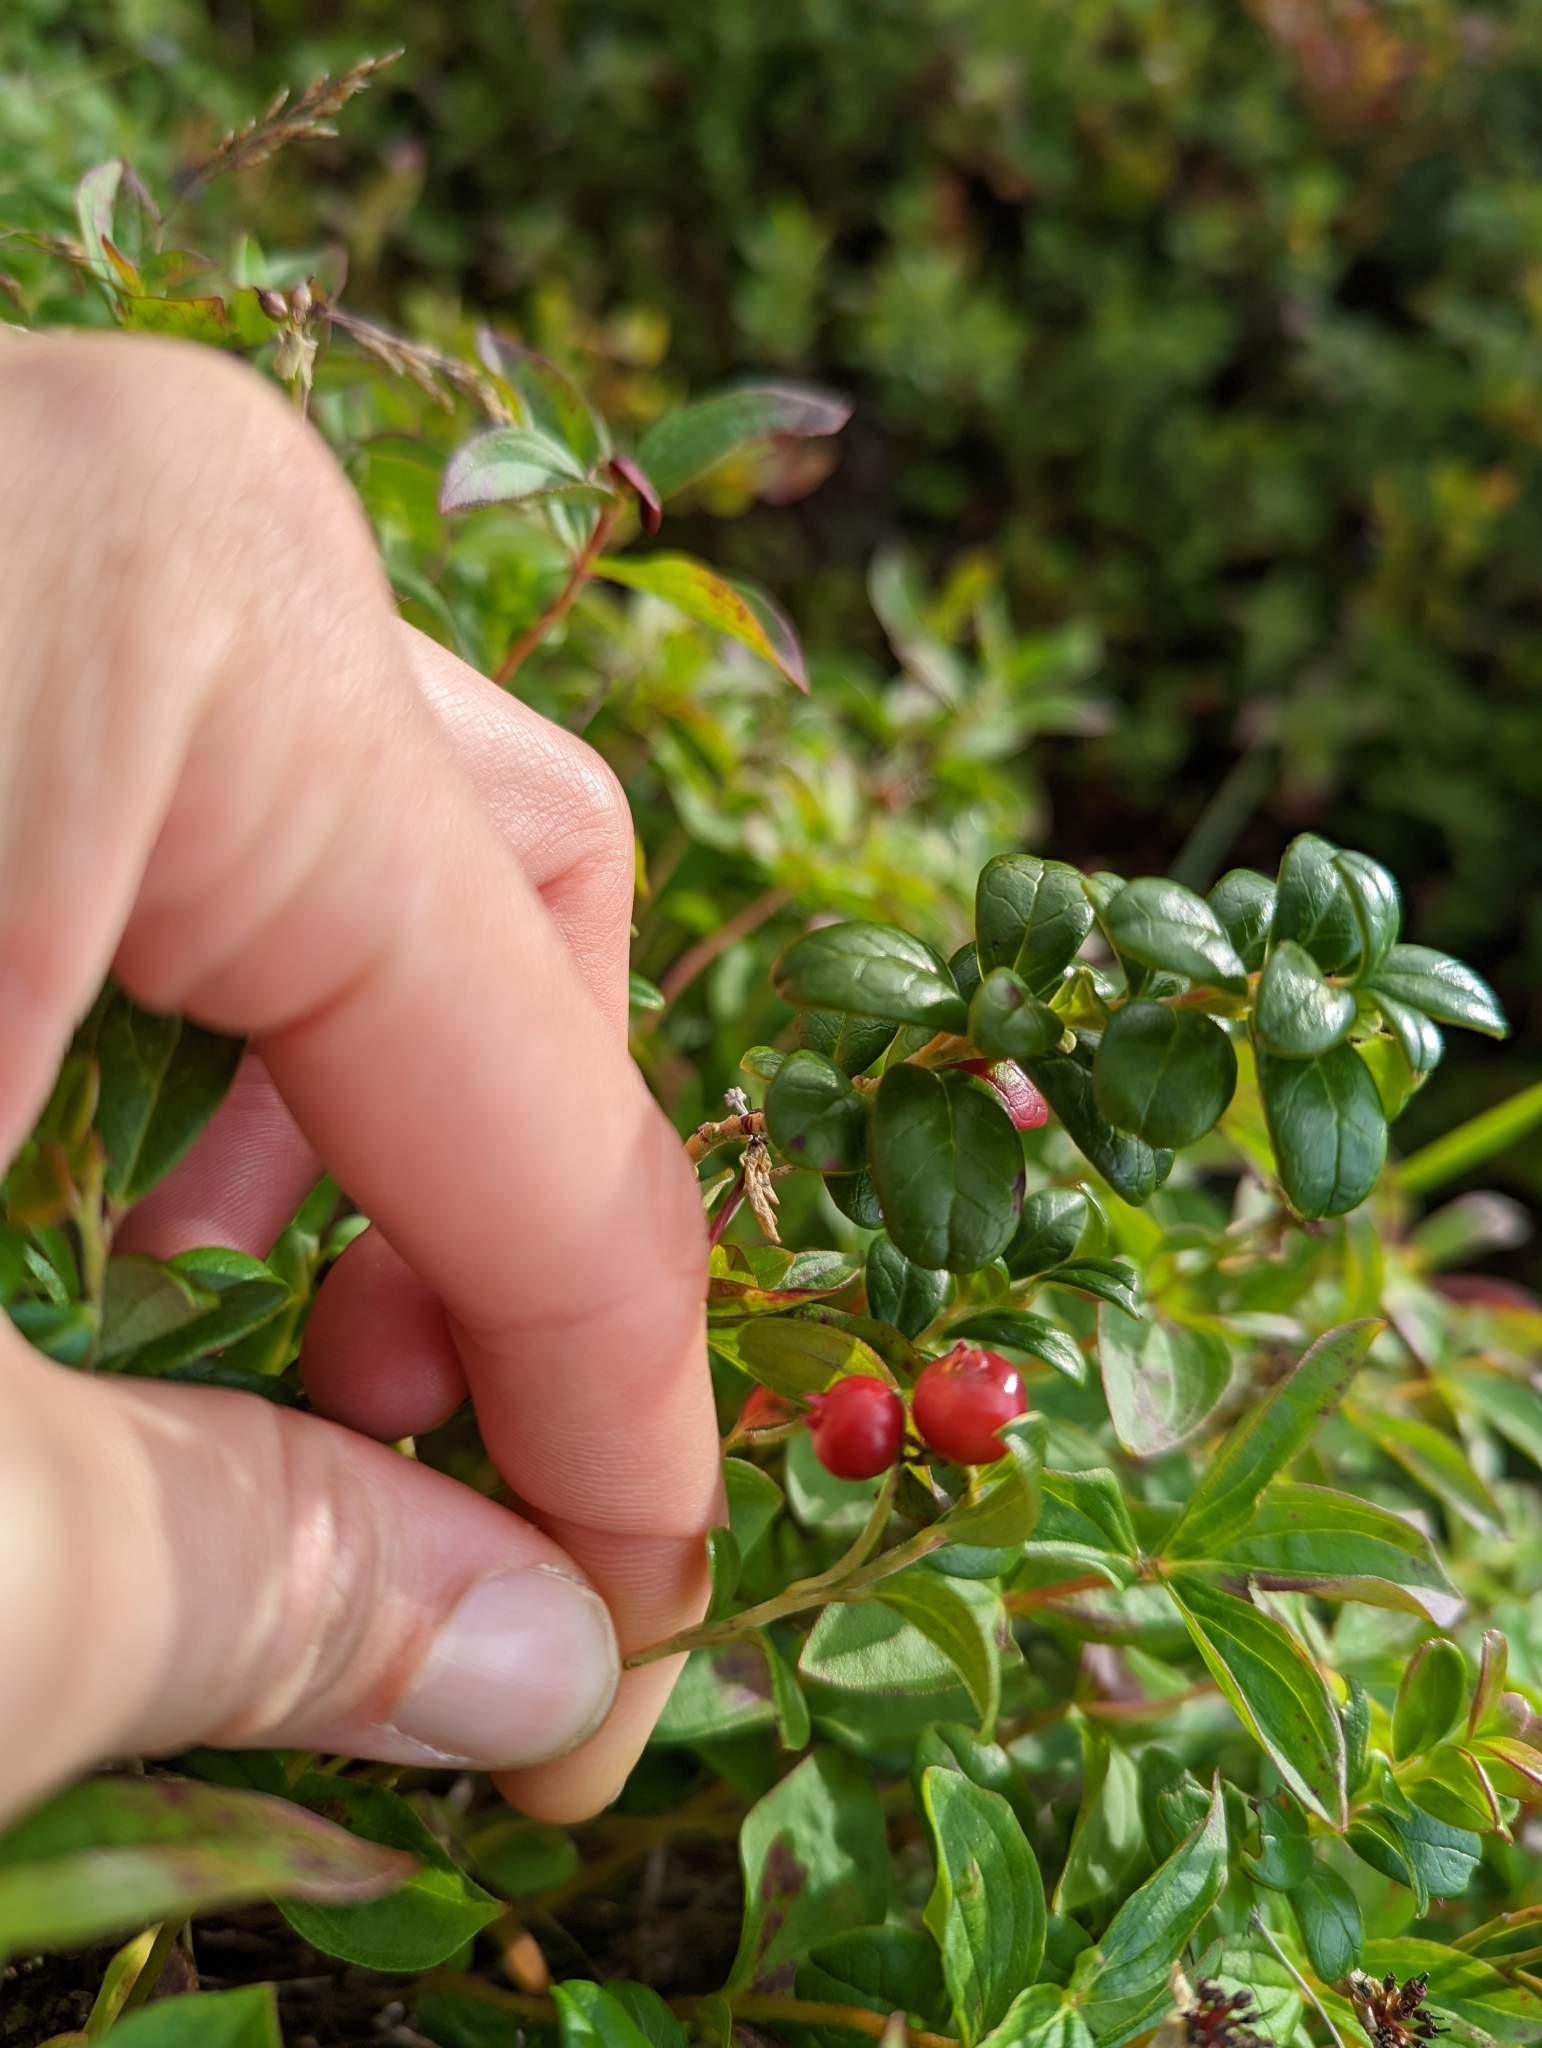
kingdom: Plantae
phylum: Tracheophyta
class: Magnoliopsida
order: Ericales
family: Ericaceae
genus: Vaccinium
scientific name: Vaccinium vitis-idaea
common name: Cowberry
